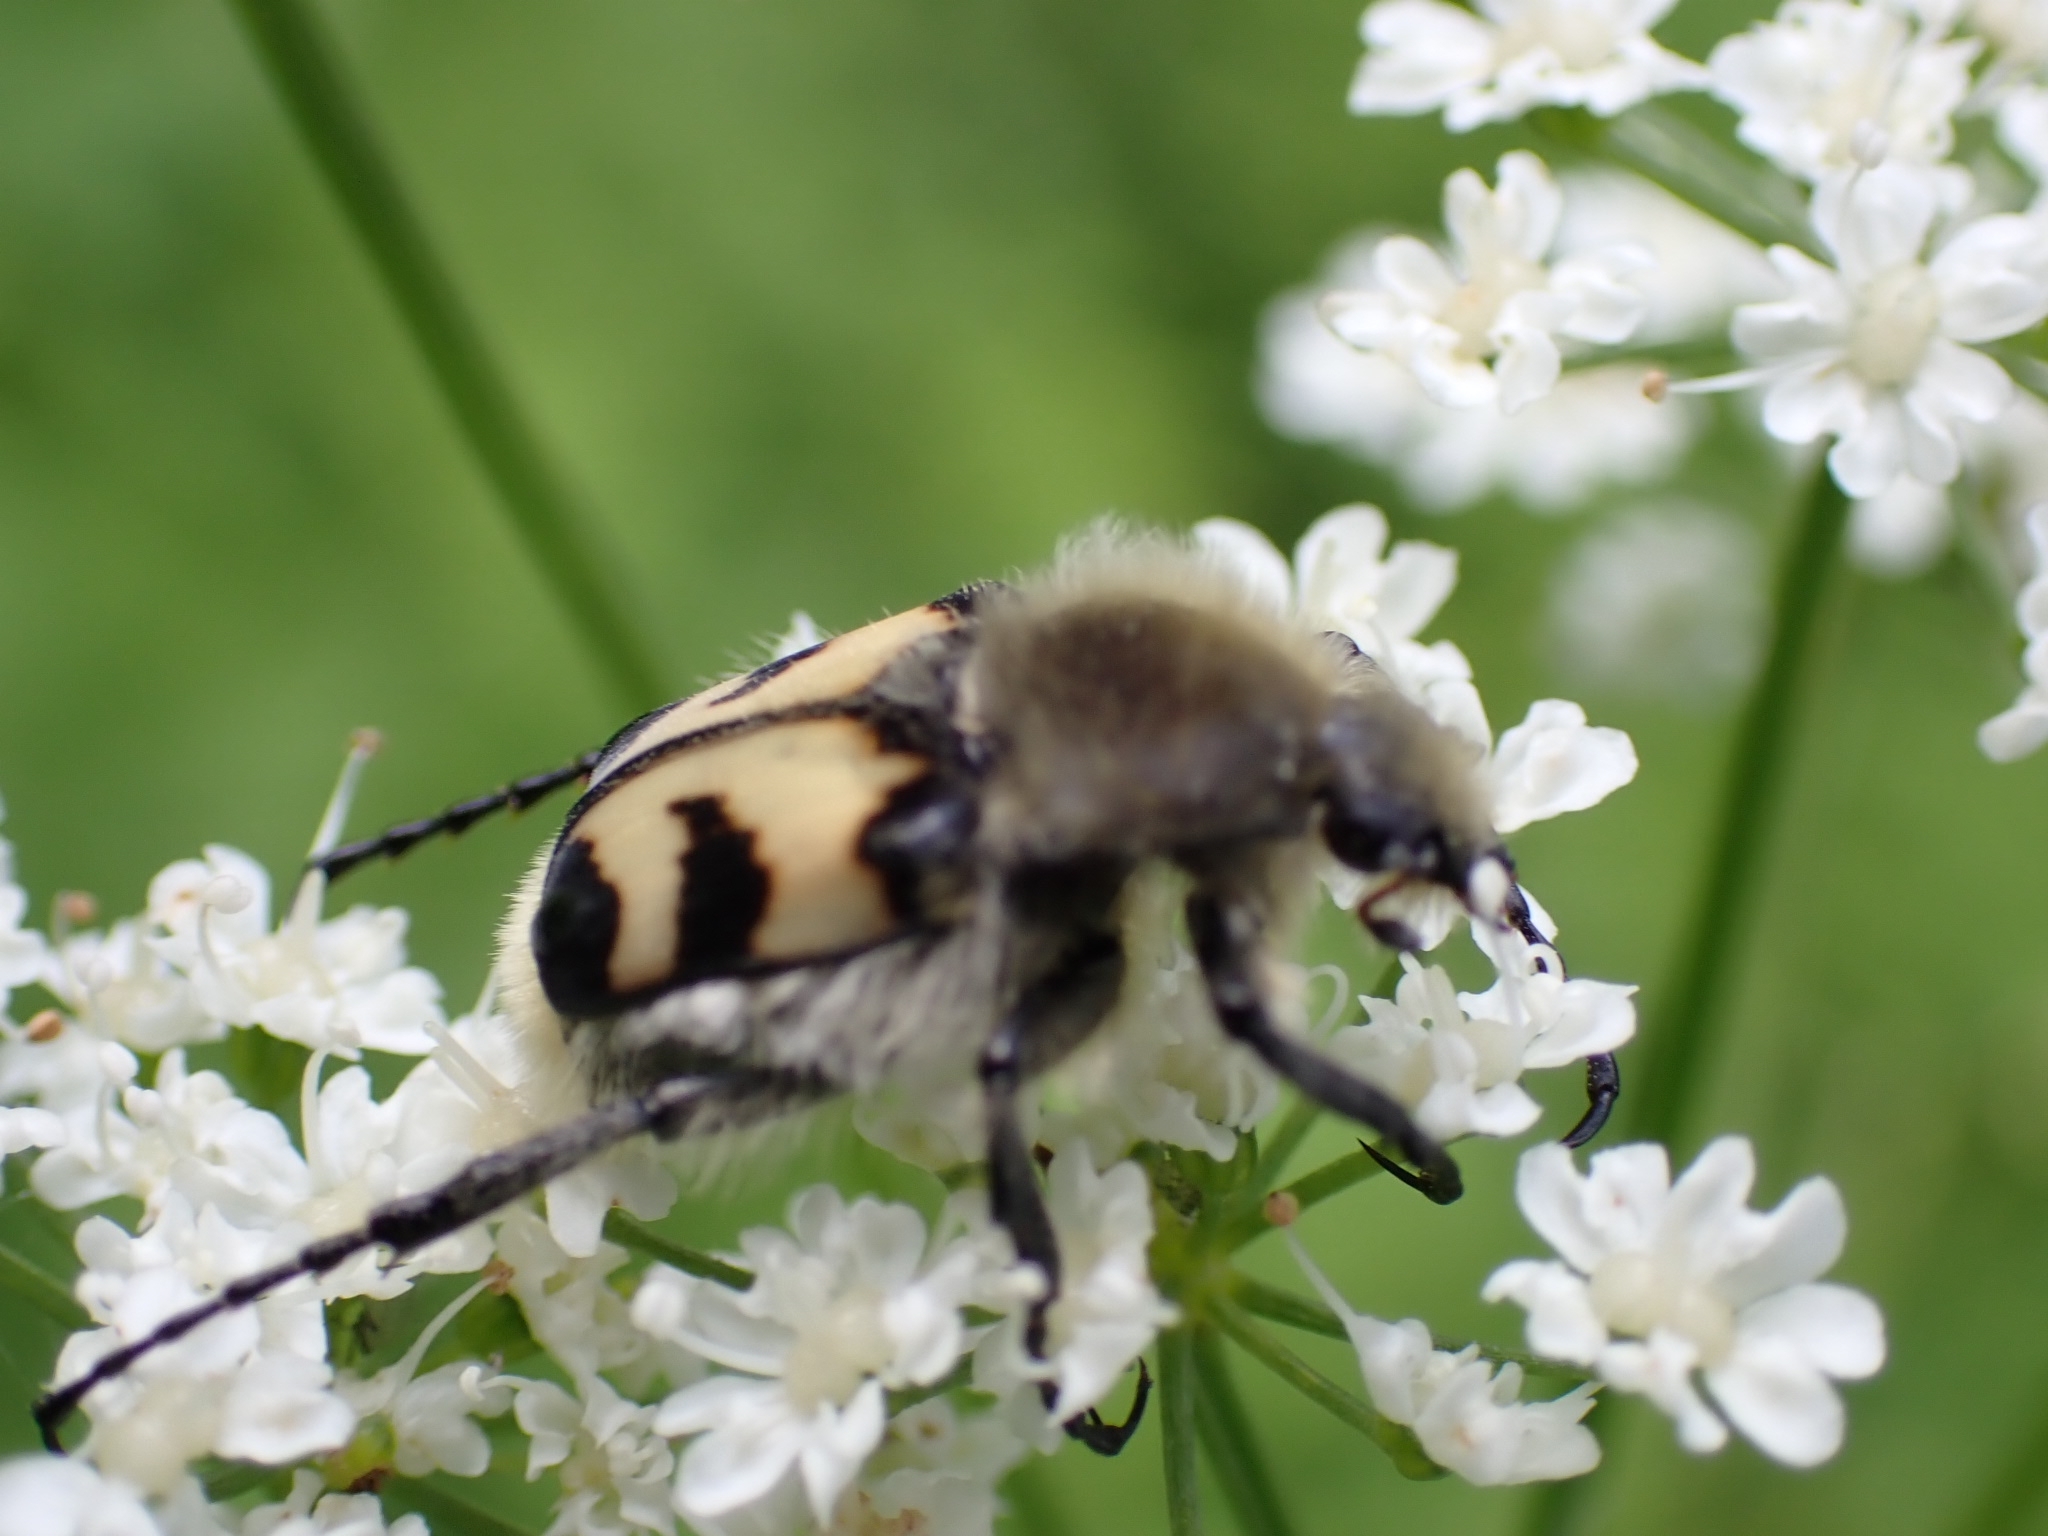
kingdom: Animalia
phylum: Arthropoda
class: Insecta
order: Coleoptera
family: Scarabaeidae
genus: Trichius
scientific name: Trichius fasciatus
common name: Bee beetle
